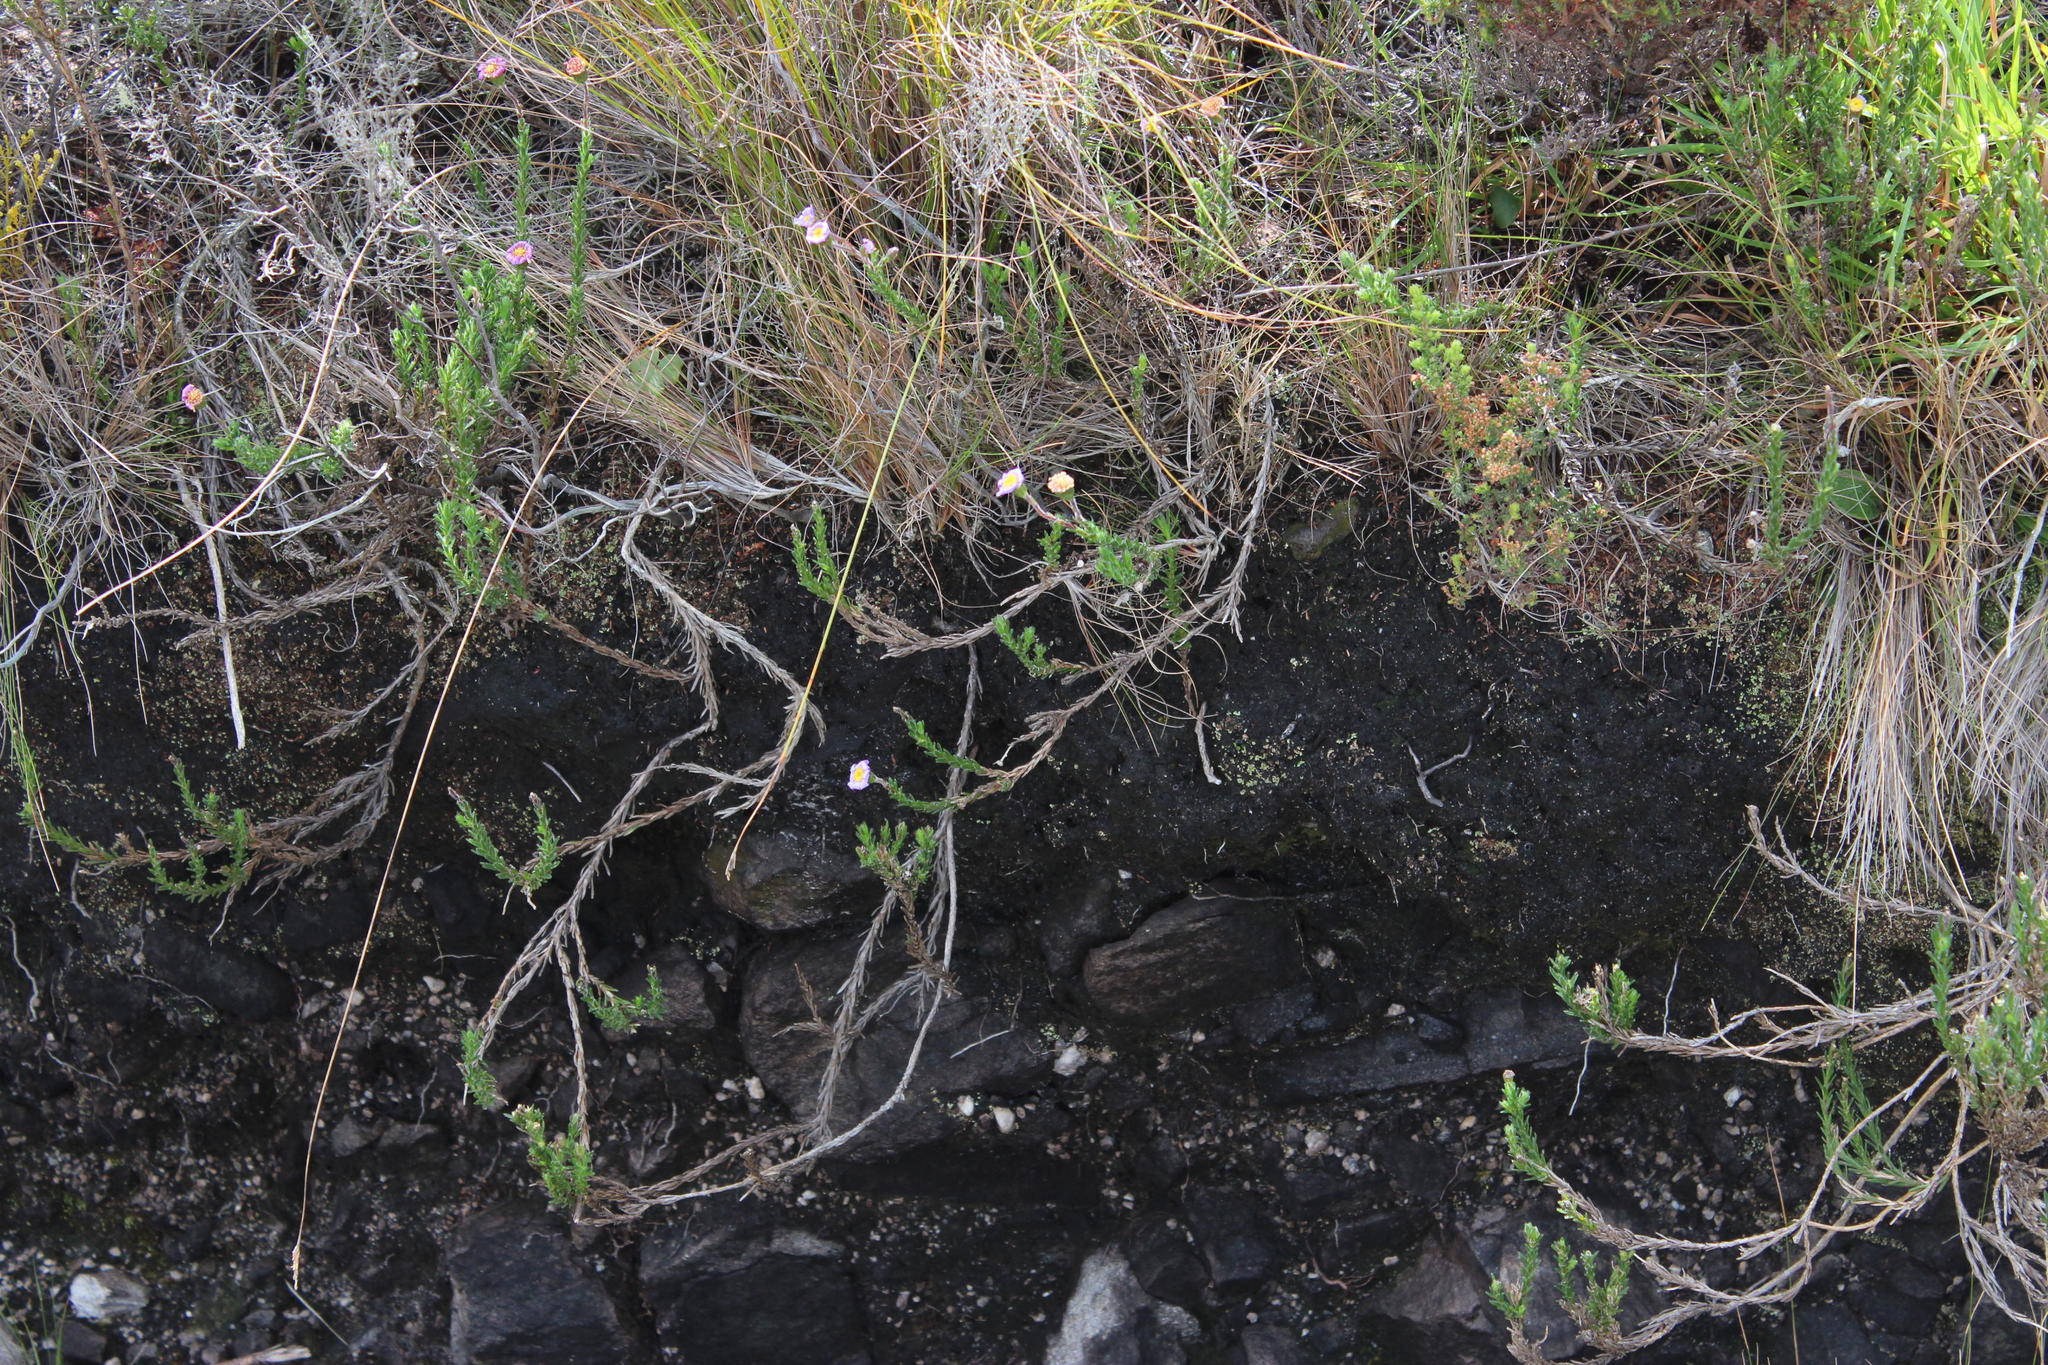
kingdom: Plantae
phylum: Tracheophyta
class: Magnoliopsida
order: Asterales
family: Asteraceae
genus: Zyrphelis
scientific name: Zyrphelis foliosa
